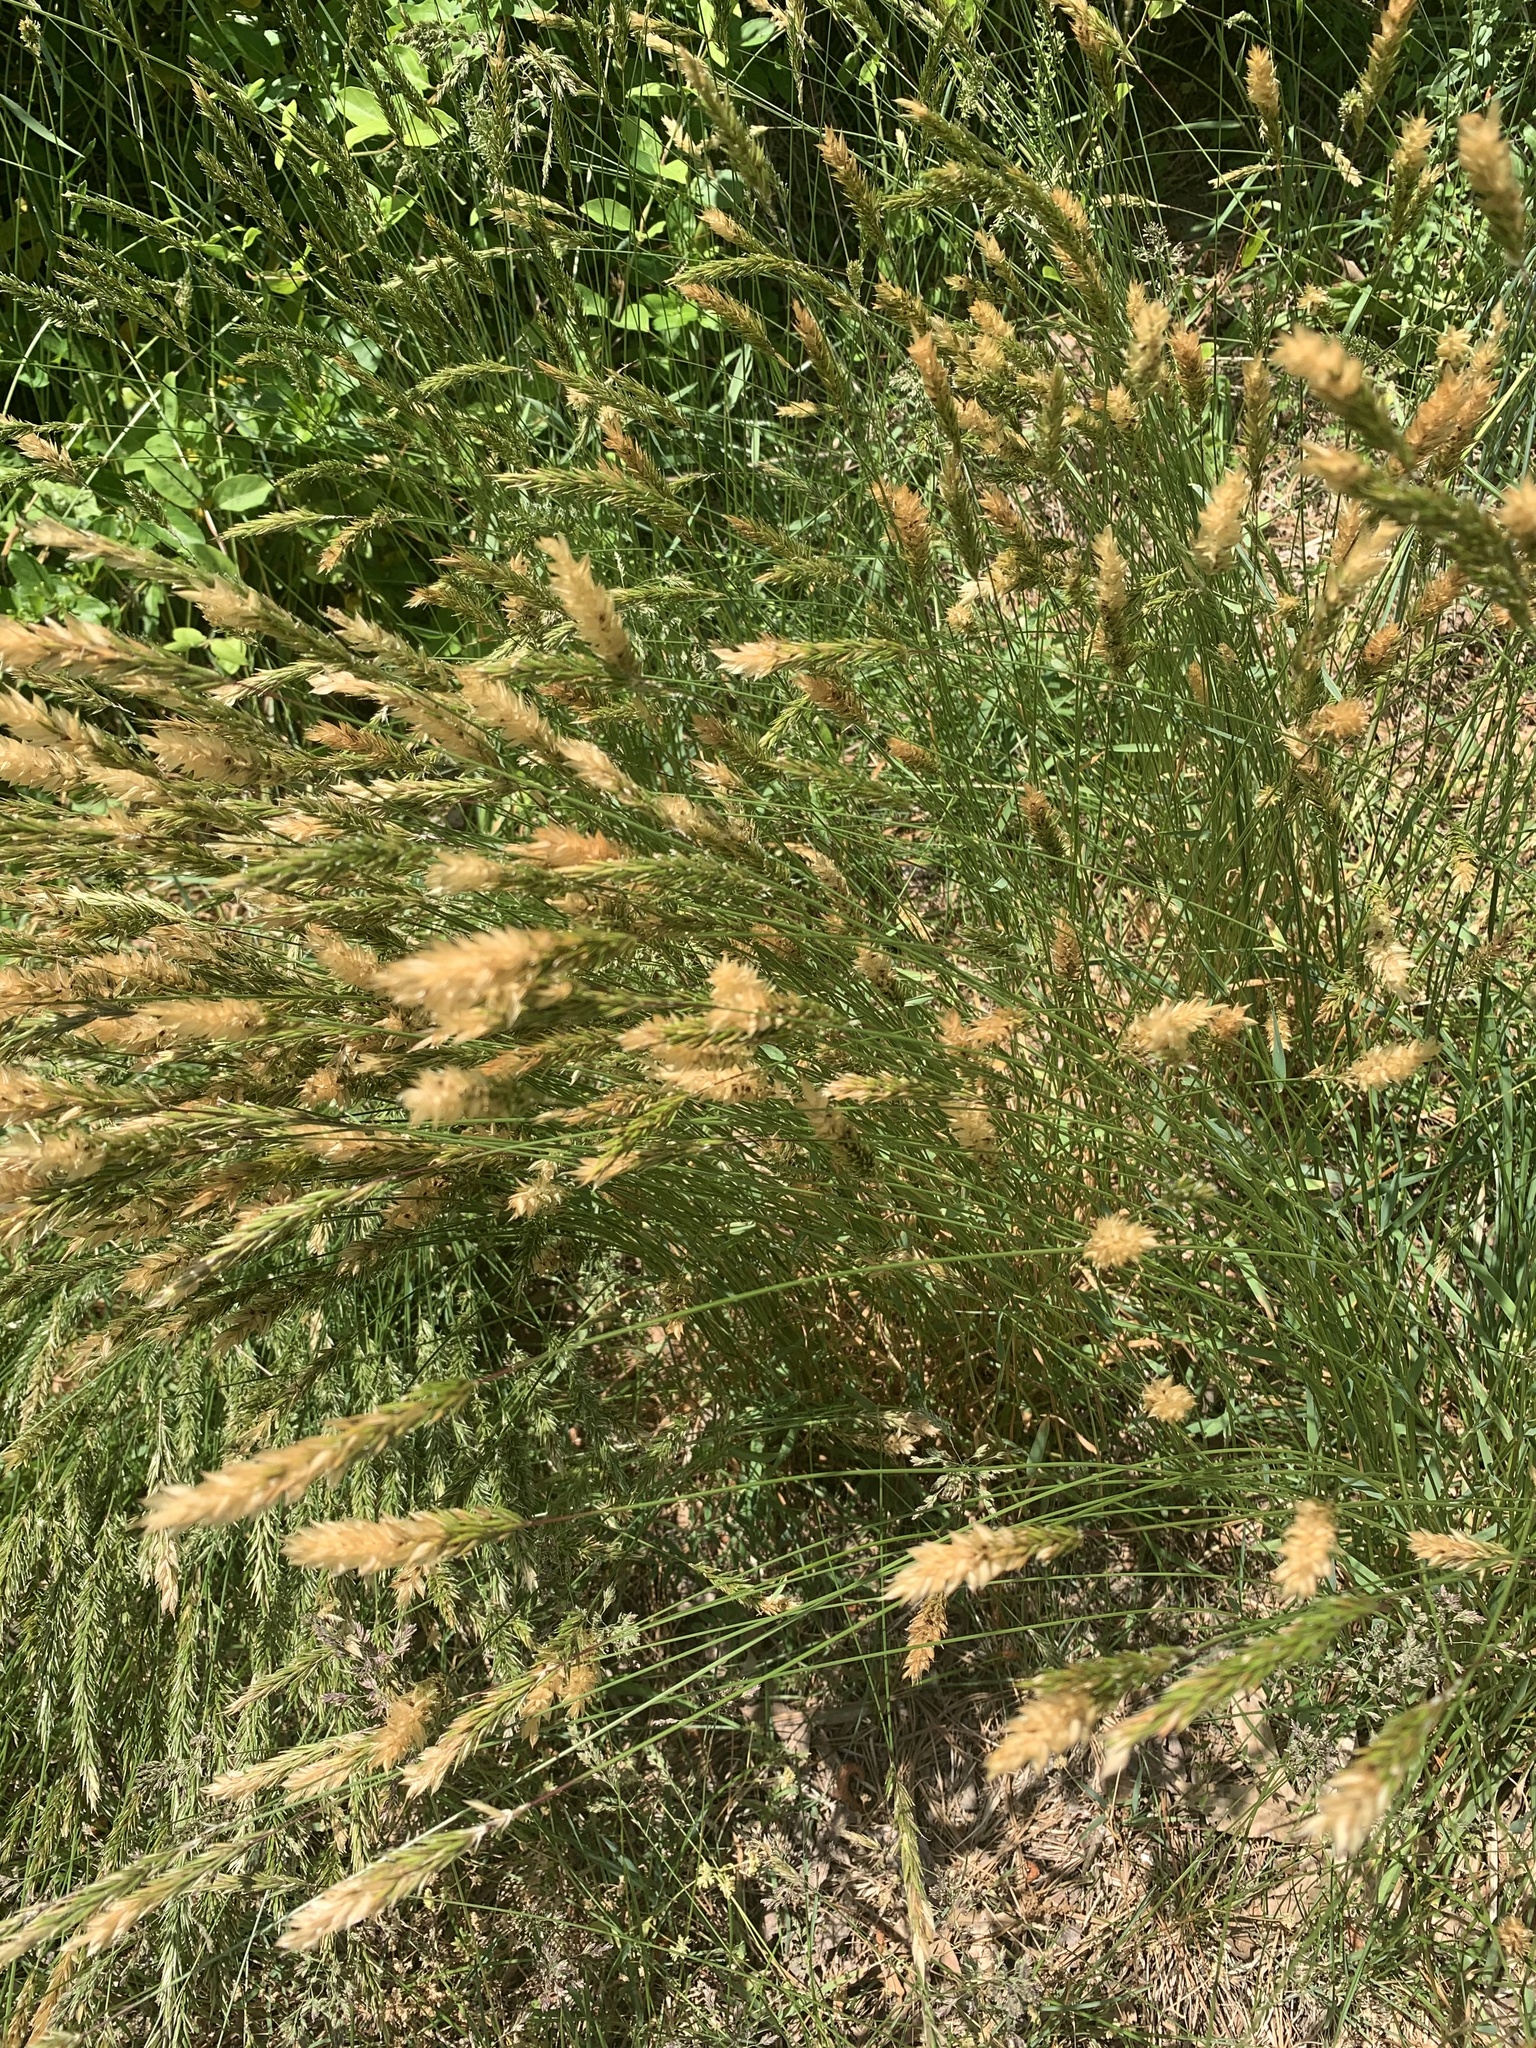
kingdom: Plantae
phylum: Tracheophyta
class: Liliopsida
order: Poales
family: Poaceae
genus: Anthoxanthum
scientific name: Anthoxanthum odoratum
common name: Sweet vernalgrass
